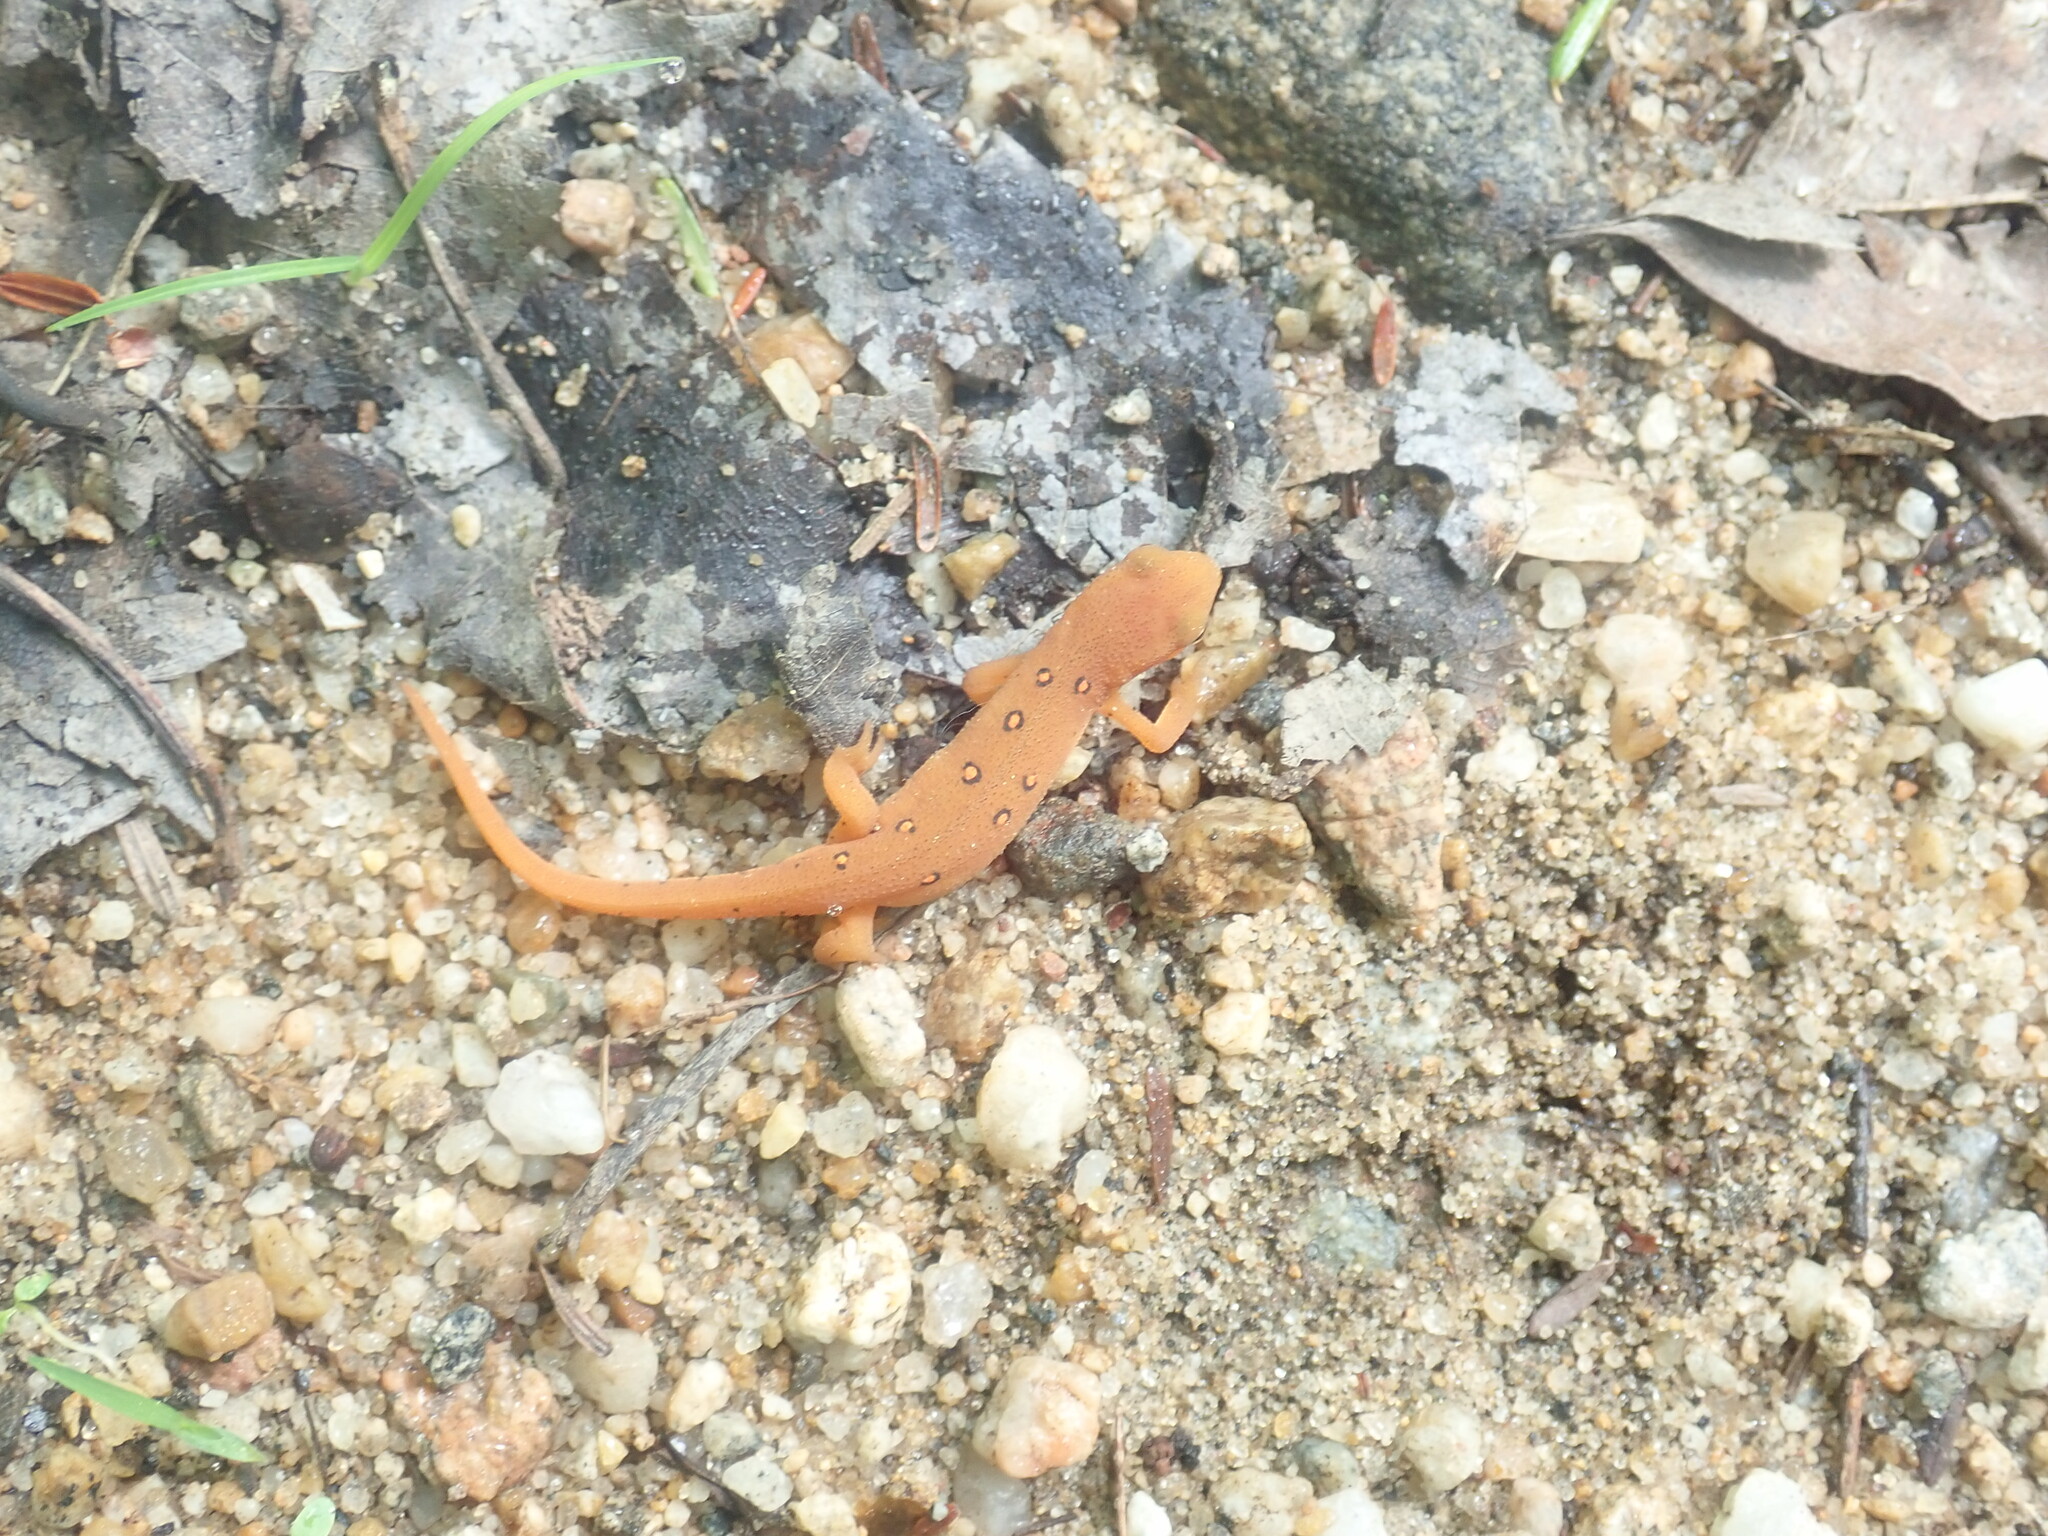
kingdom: Animalia
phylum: Chordata
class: Amphibia
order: Caudata
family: Salamandridae
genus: Notophthalmus
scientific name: Notophthalmus viridescens
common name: Eastern newt
